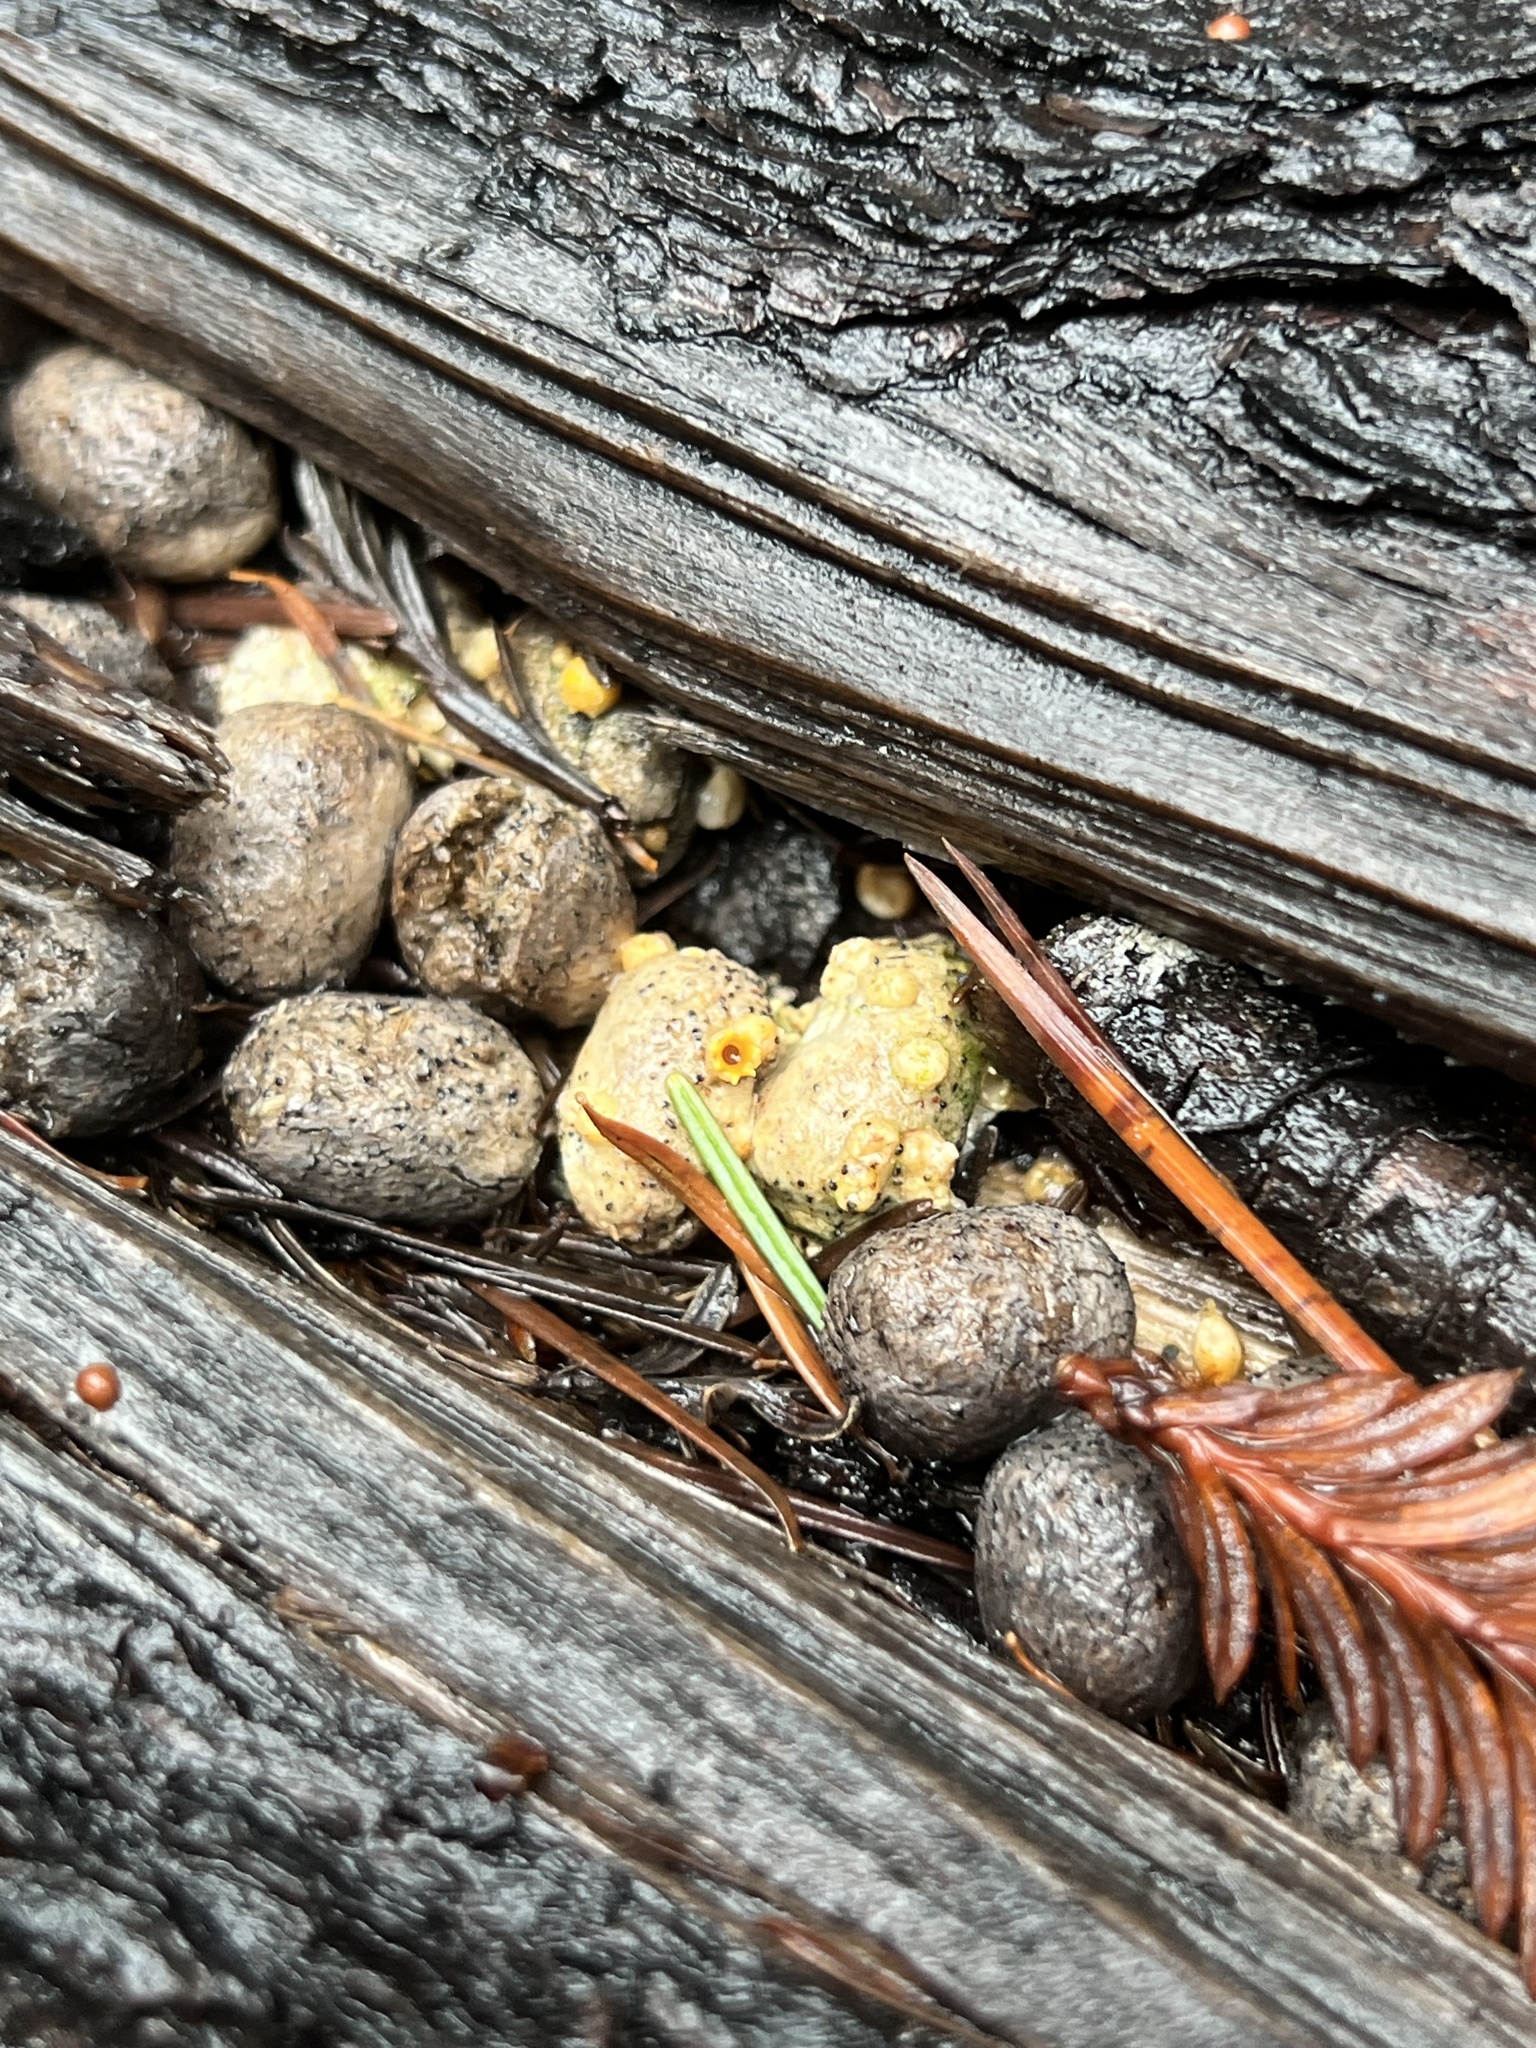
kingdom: Fungi
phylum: Basidiomycota
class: Agaricomycetes
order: Geastrales
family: Geastraceae
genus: Sphaerobolus
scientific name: Sphaerobolus stellatus
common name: Cannon fungus
